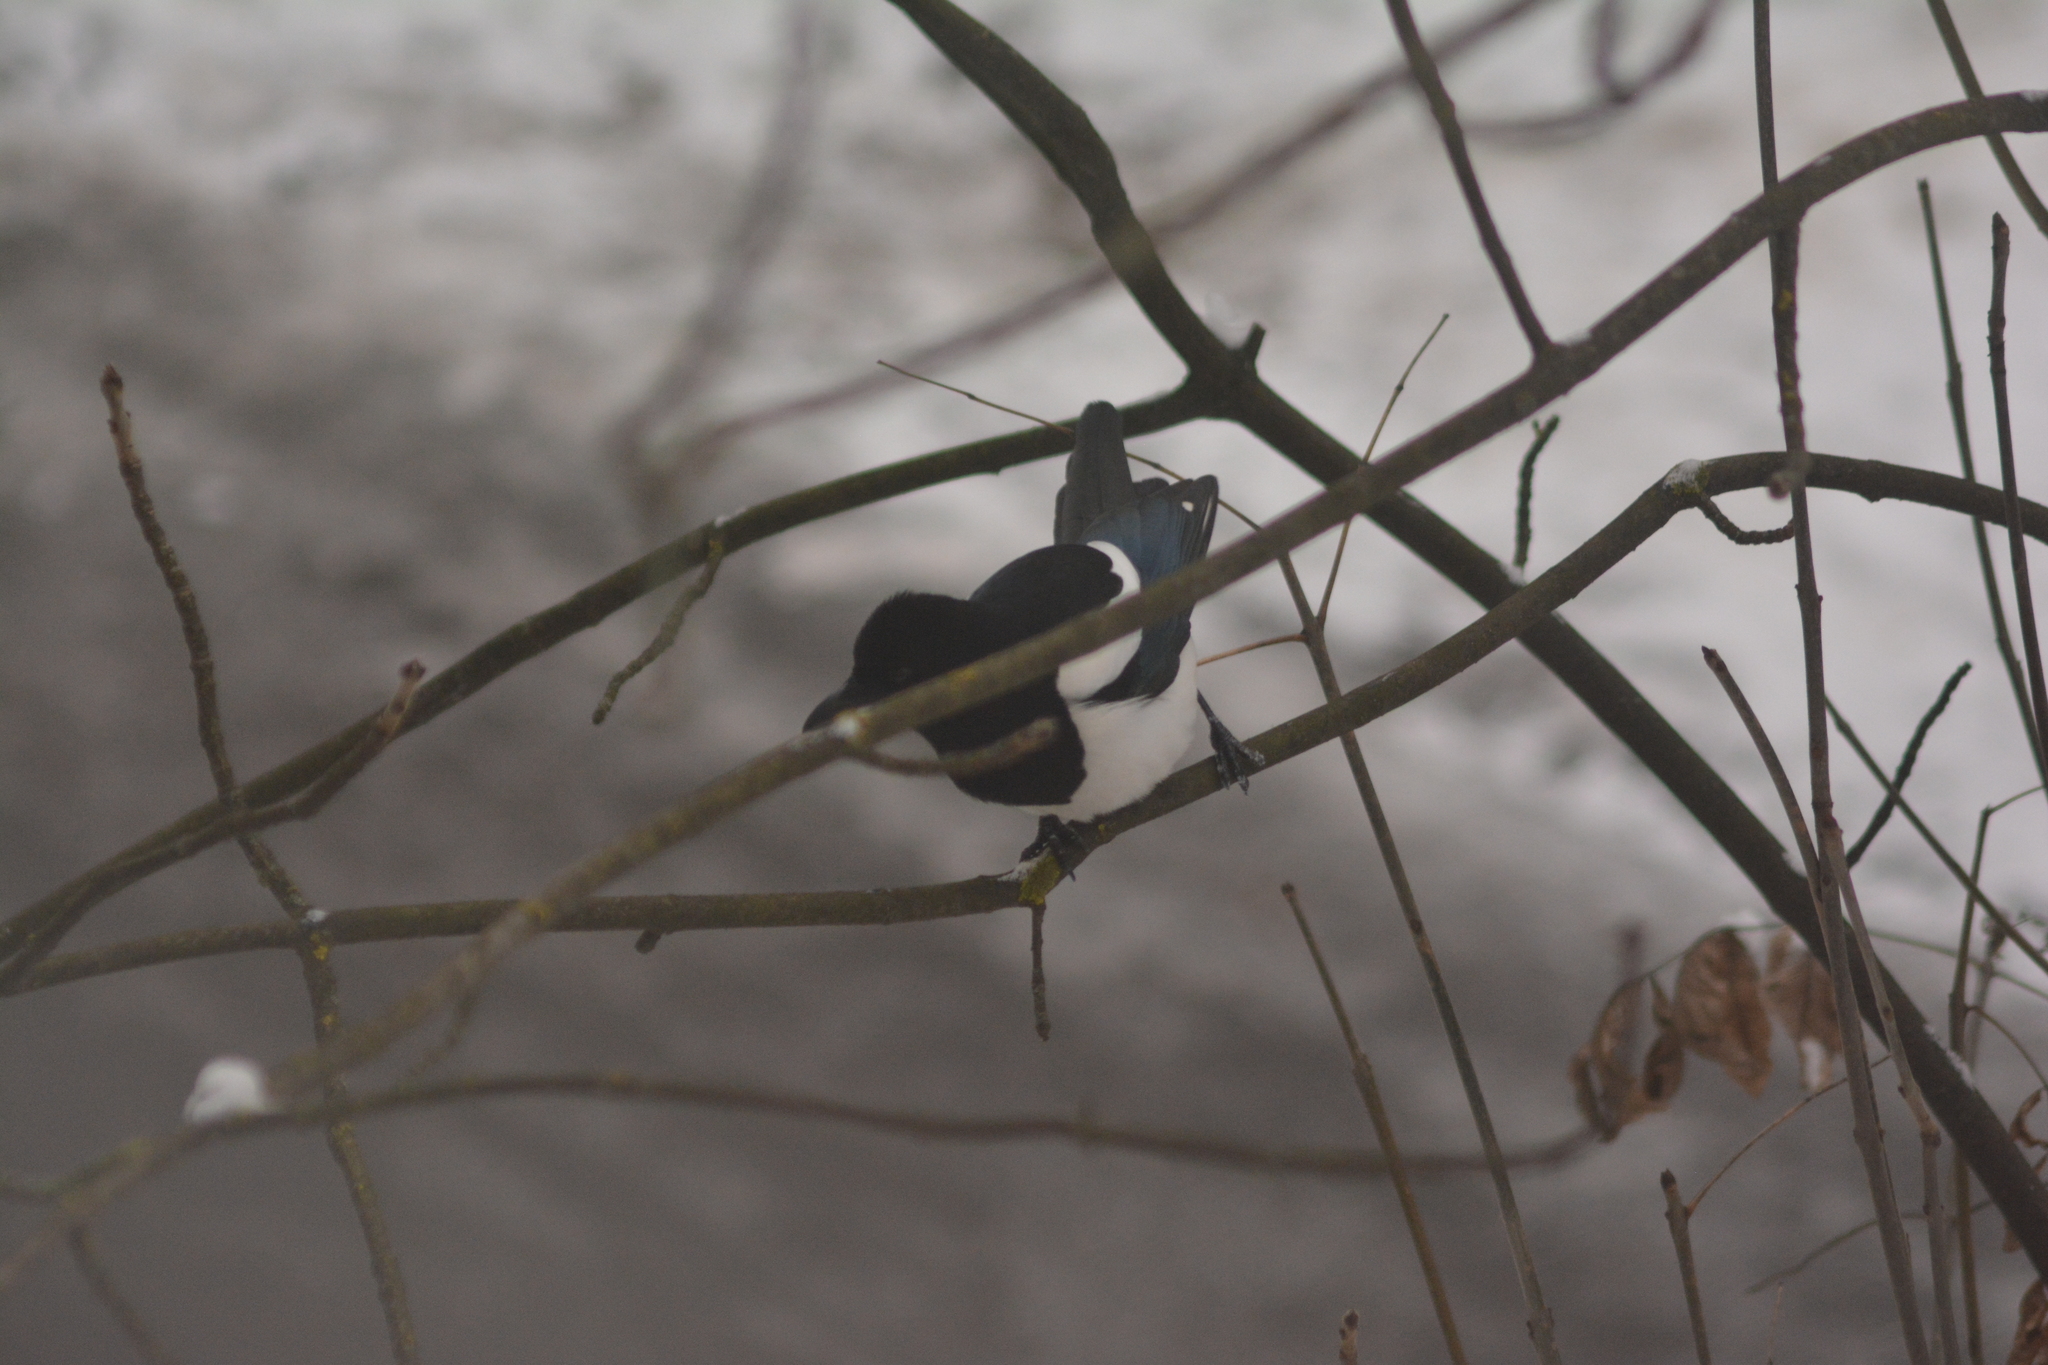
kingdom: Animalia
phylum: Chordata
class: Aves
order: Passeriformes
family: Corvidae
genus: Pica
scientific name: Pica pica
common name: Eurasian magpie
